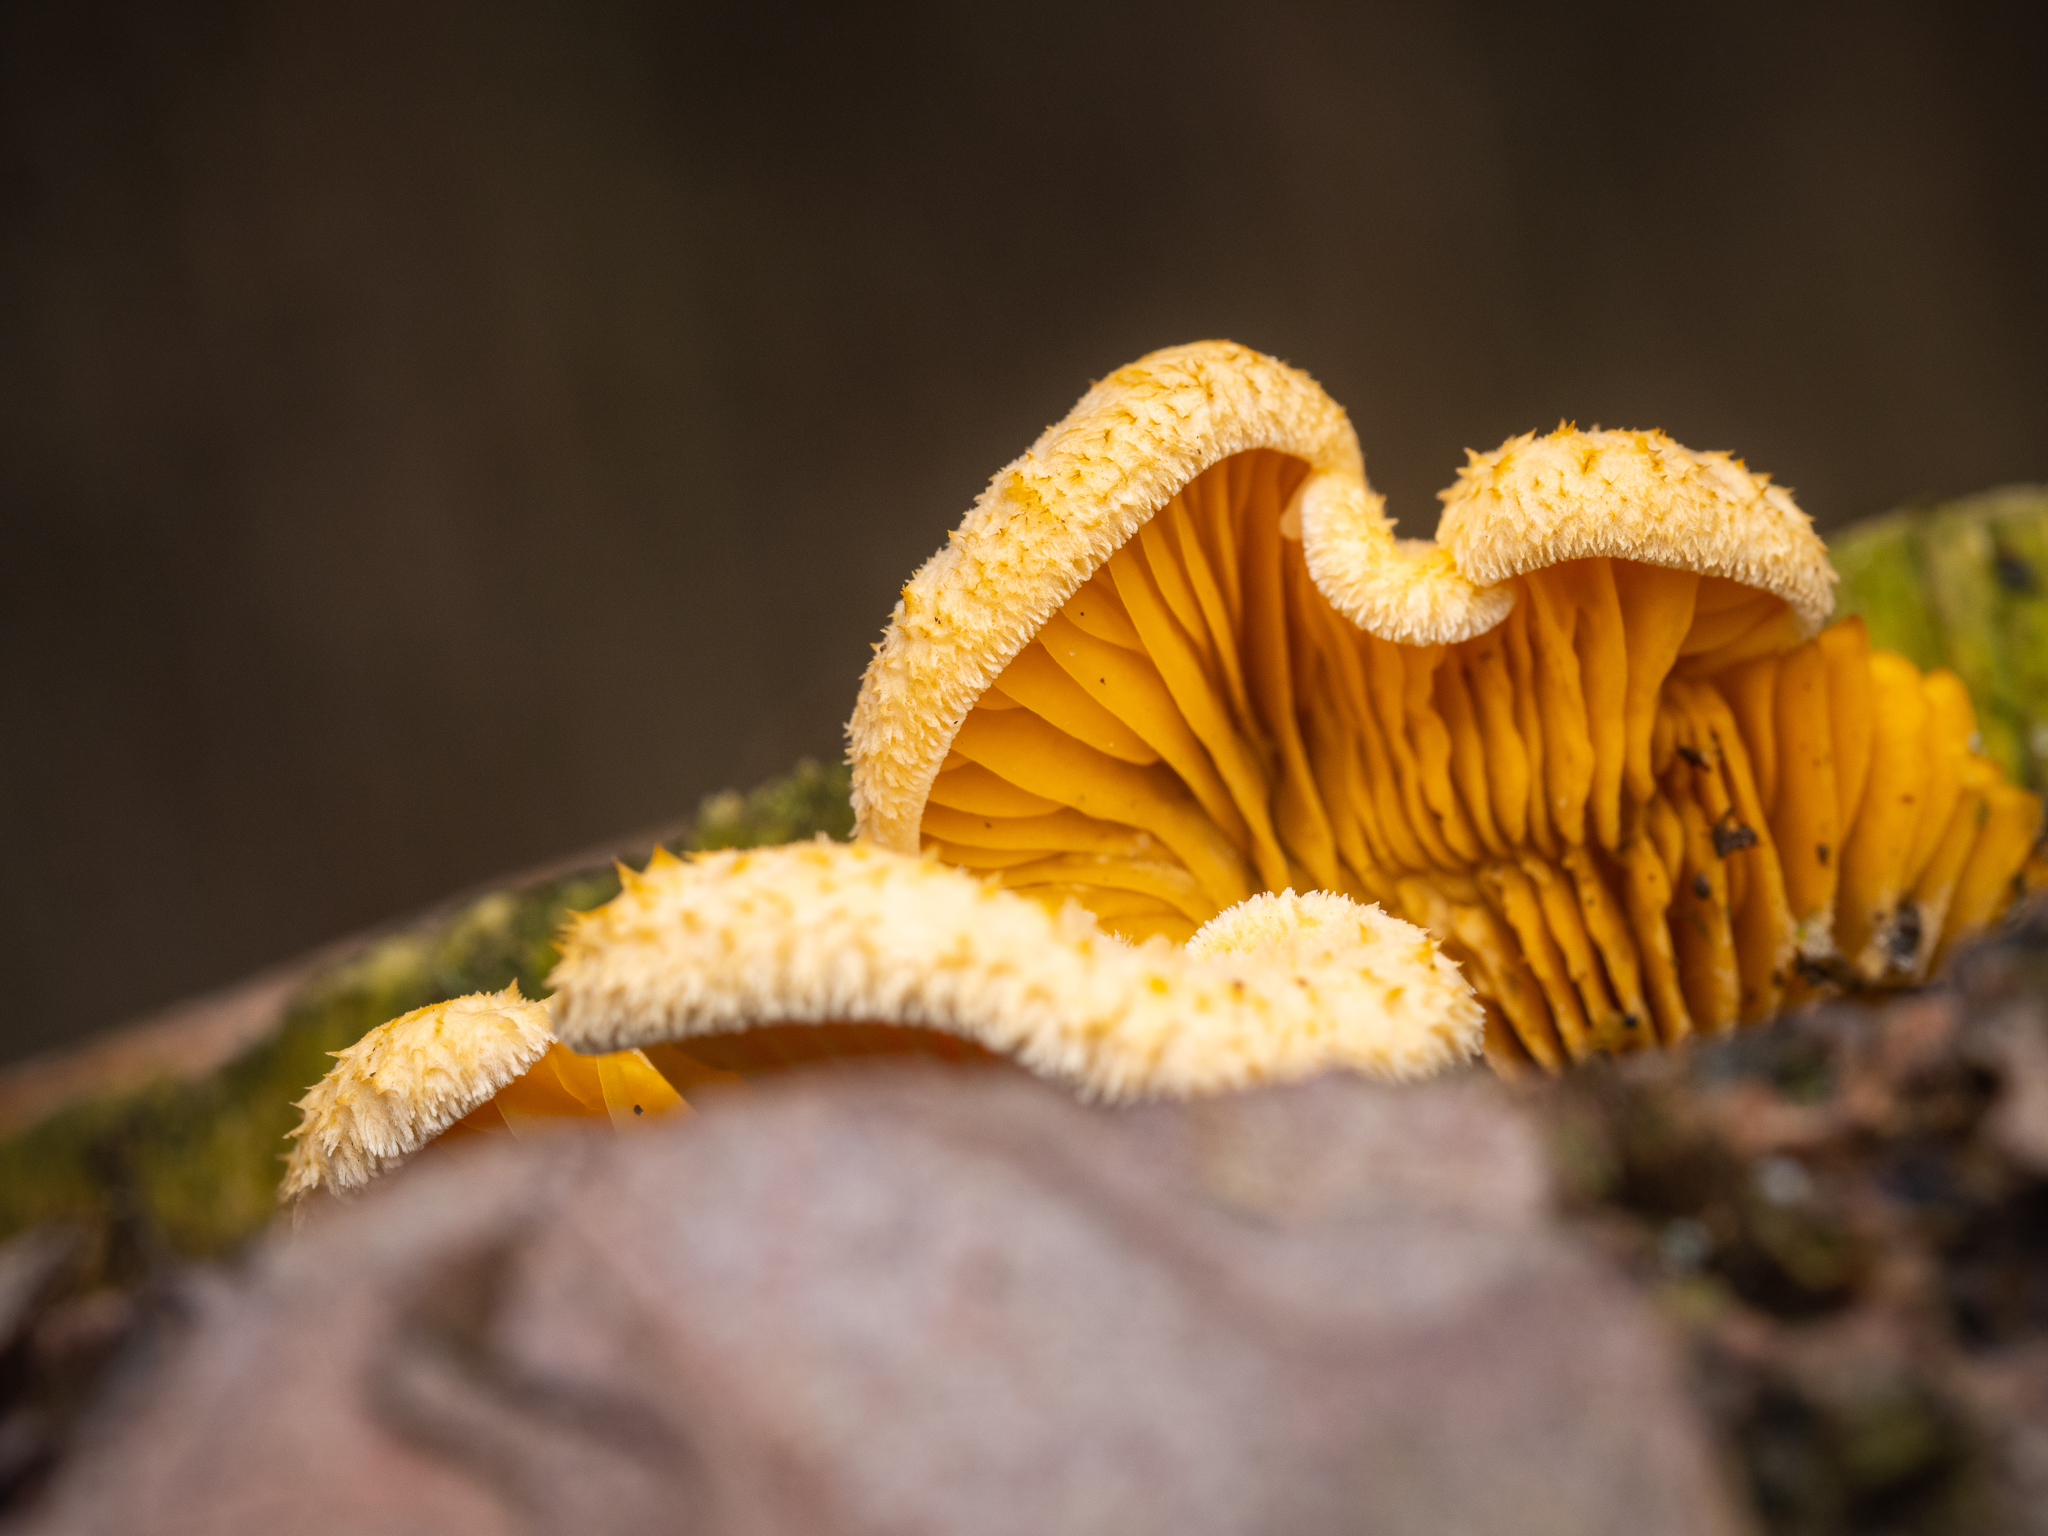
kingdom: Fungi
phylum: Basidiomycota
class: Agaricomycetes
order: Agaricales
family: Phyllotopsidaceae
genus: Phyllotopsis
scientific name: Phyllotopsis nidulans
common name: Orange mock oyster
